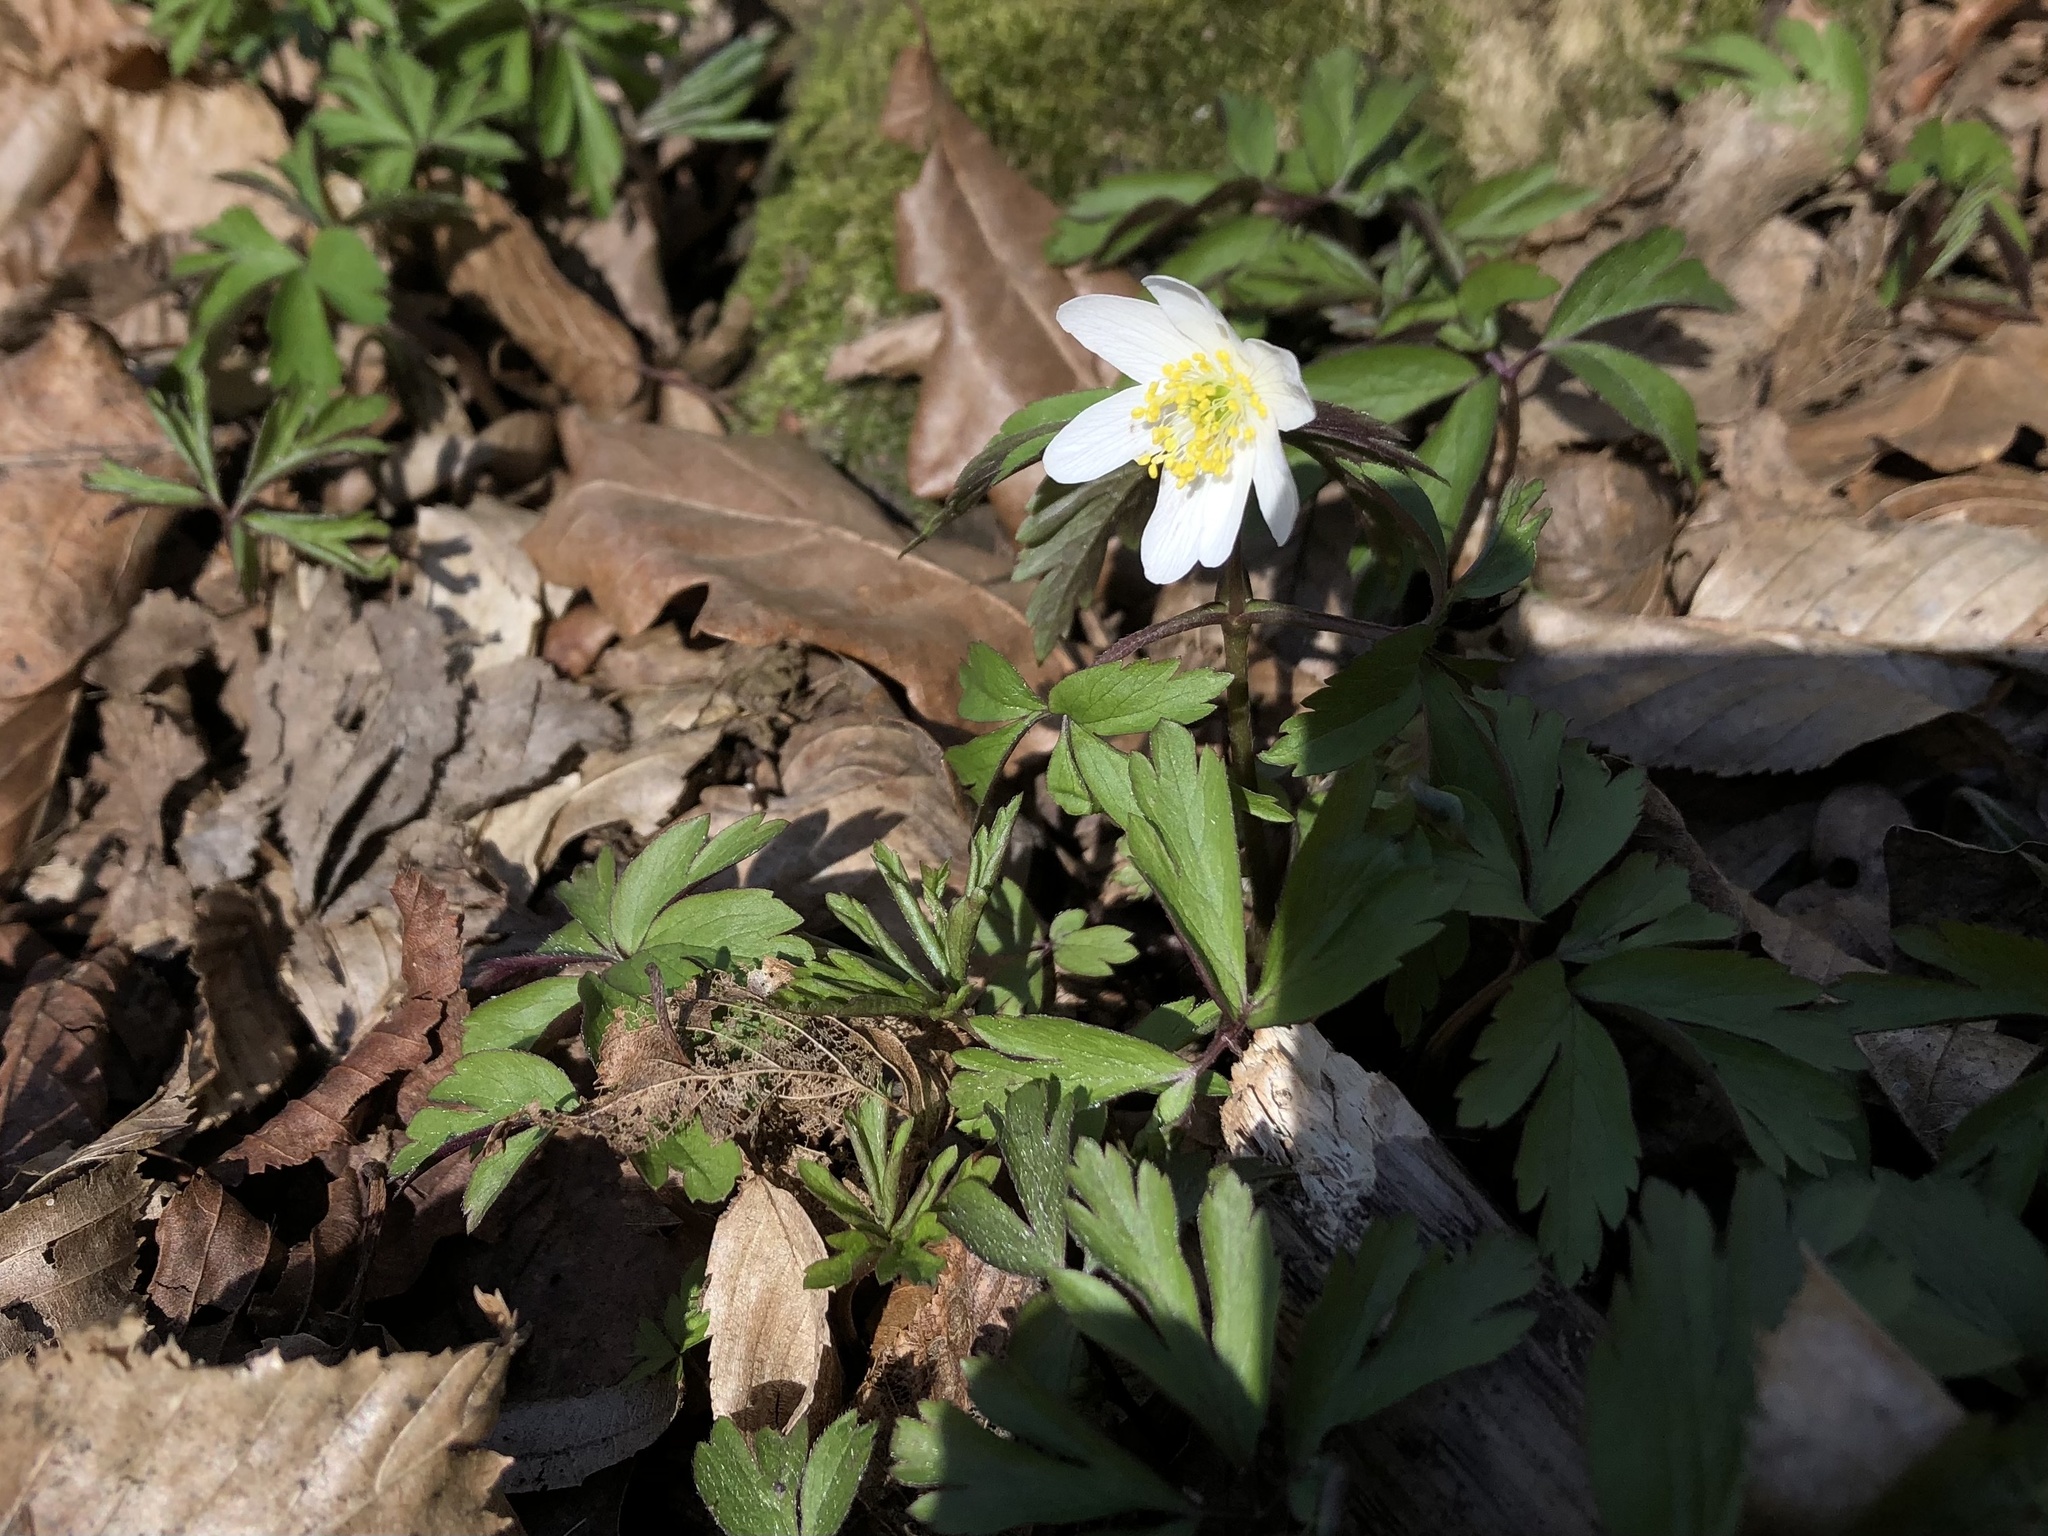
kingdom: Plantae
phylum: Tracheophyta
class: Magnoliopsida
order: Ranunculales
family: Ranunculaceae
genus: Anemone
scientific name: Anemone nemorosa
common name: Wood anemone
